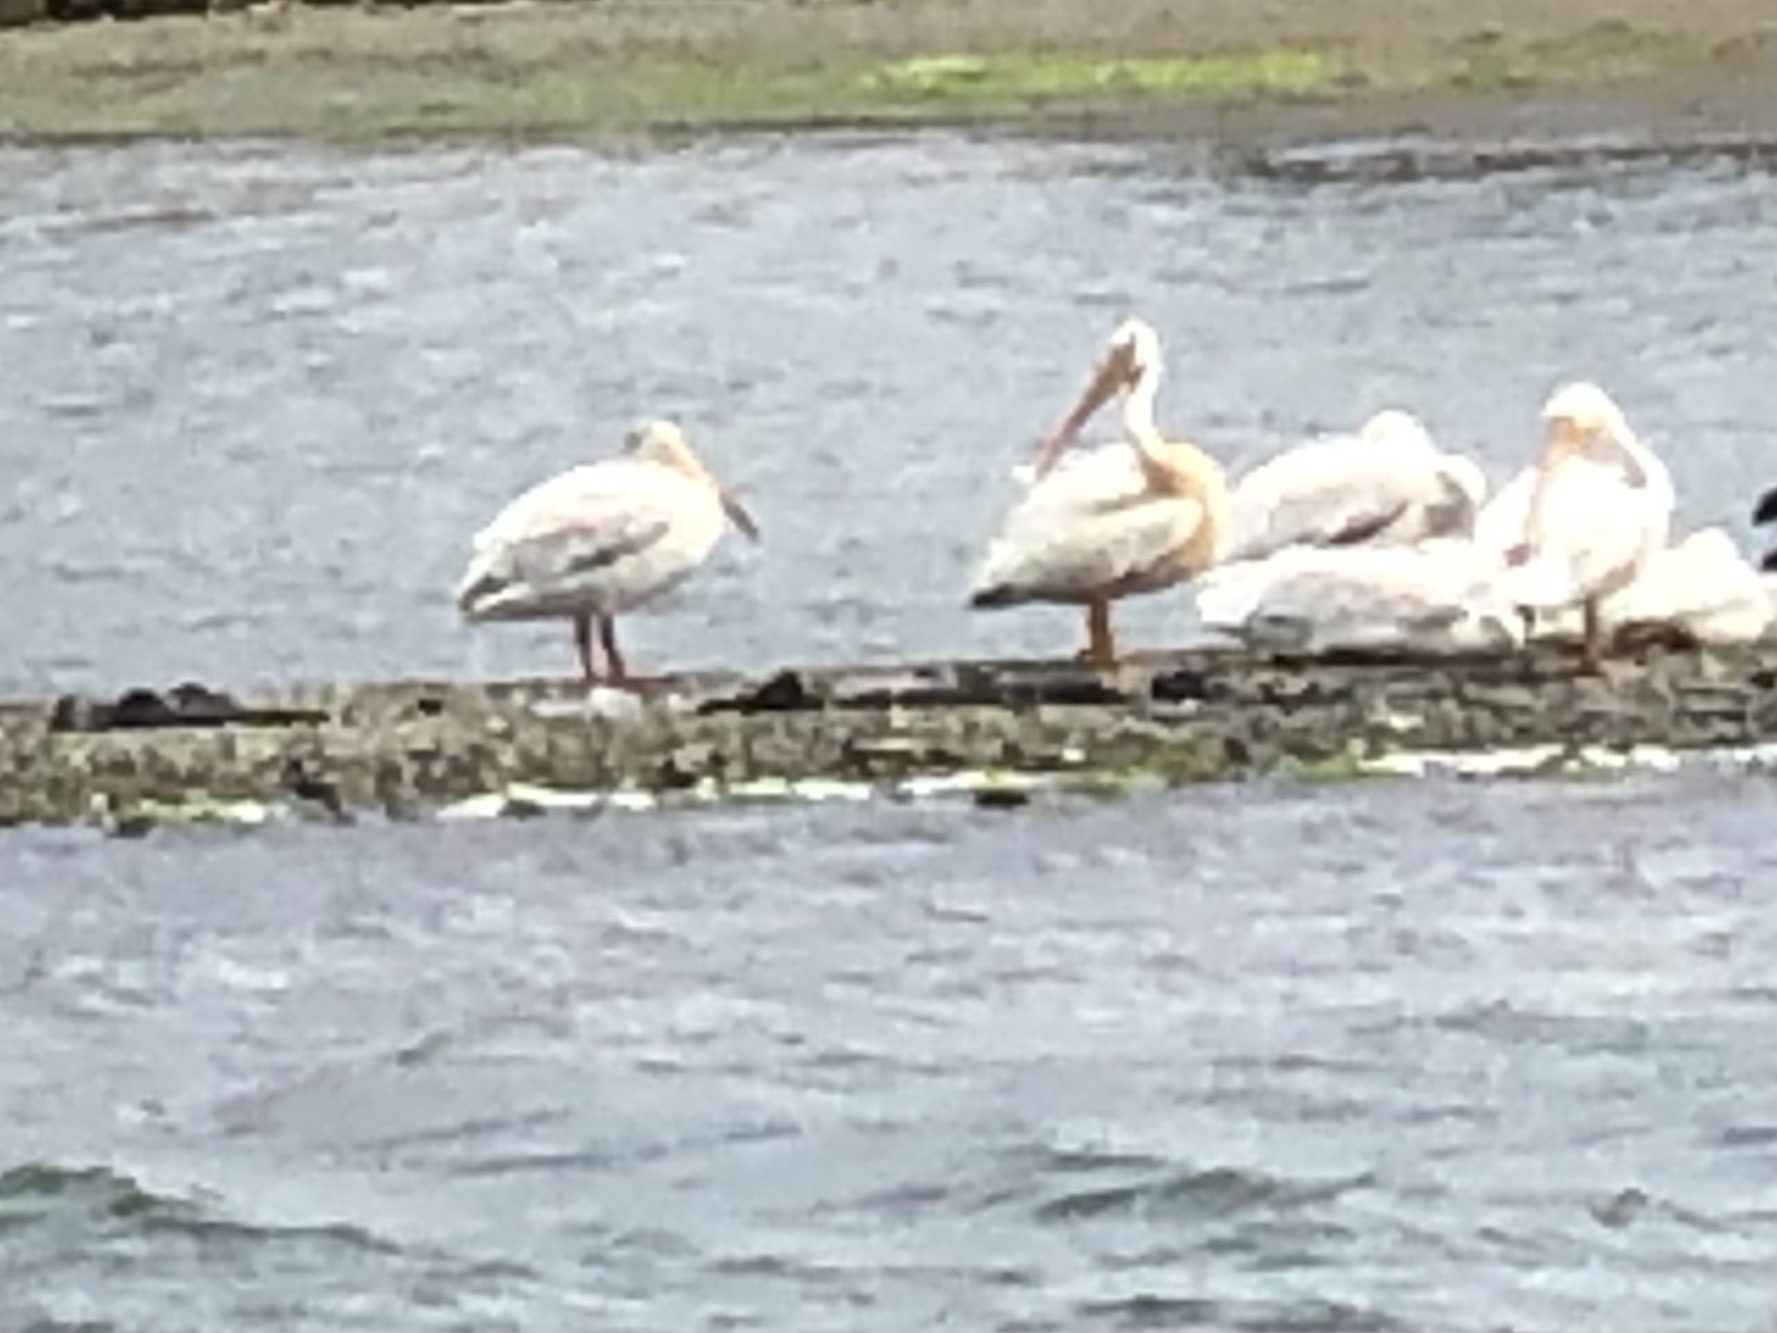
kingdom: Animalia
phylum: Chordata
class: Aves
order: Pelecaniformes
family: Pelecanidae
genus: Pelecanus
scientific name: Pelecanus erythrorhynchos
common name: American white pelican
